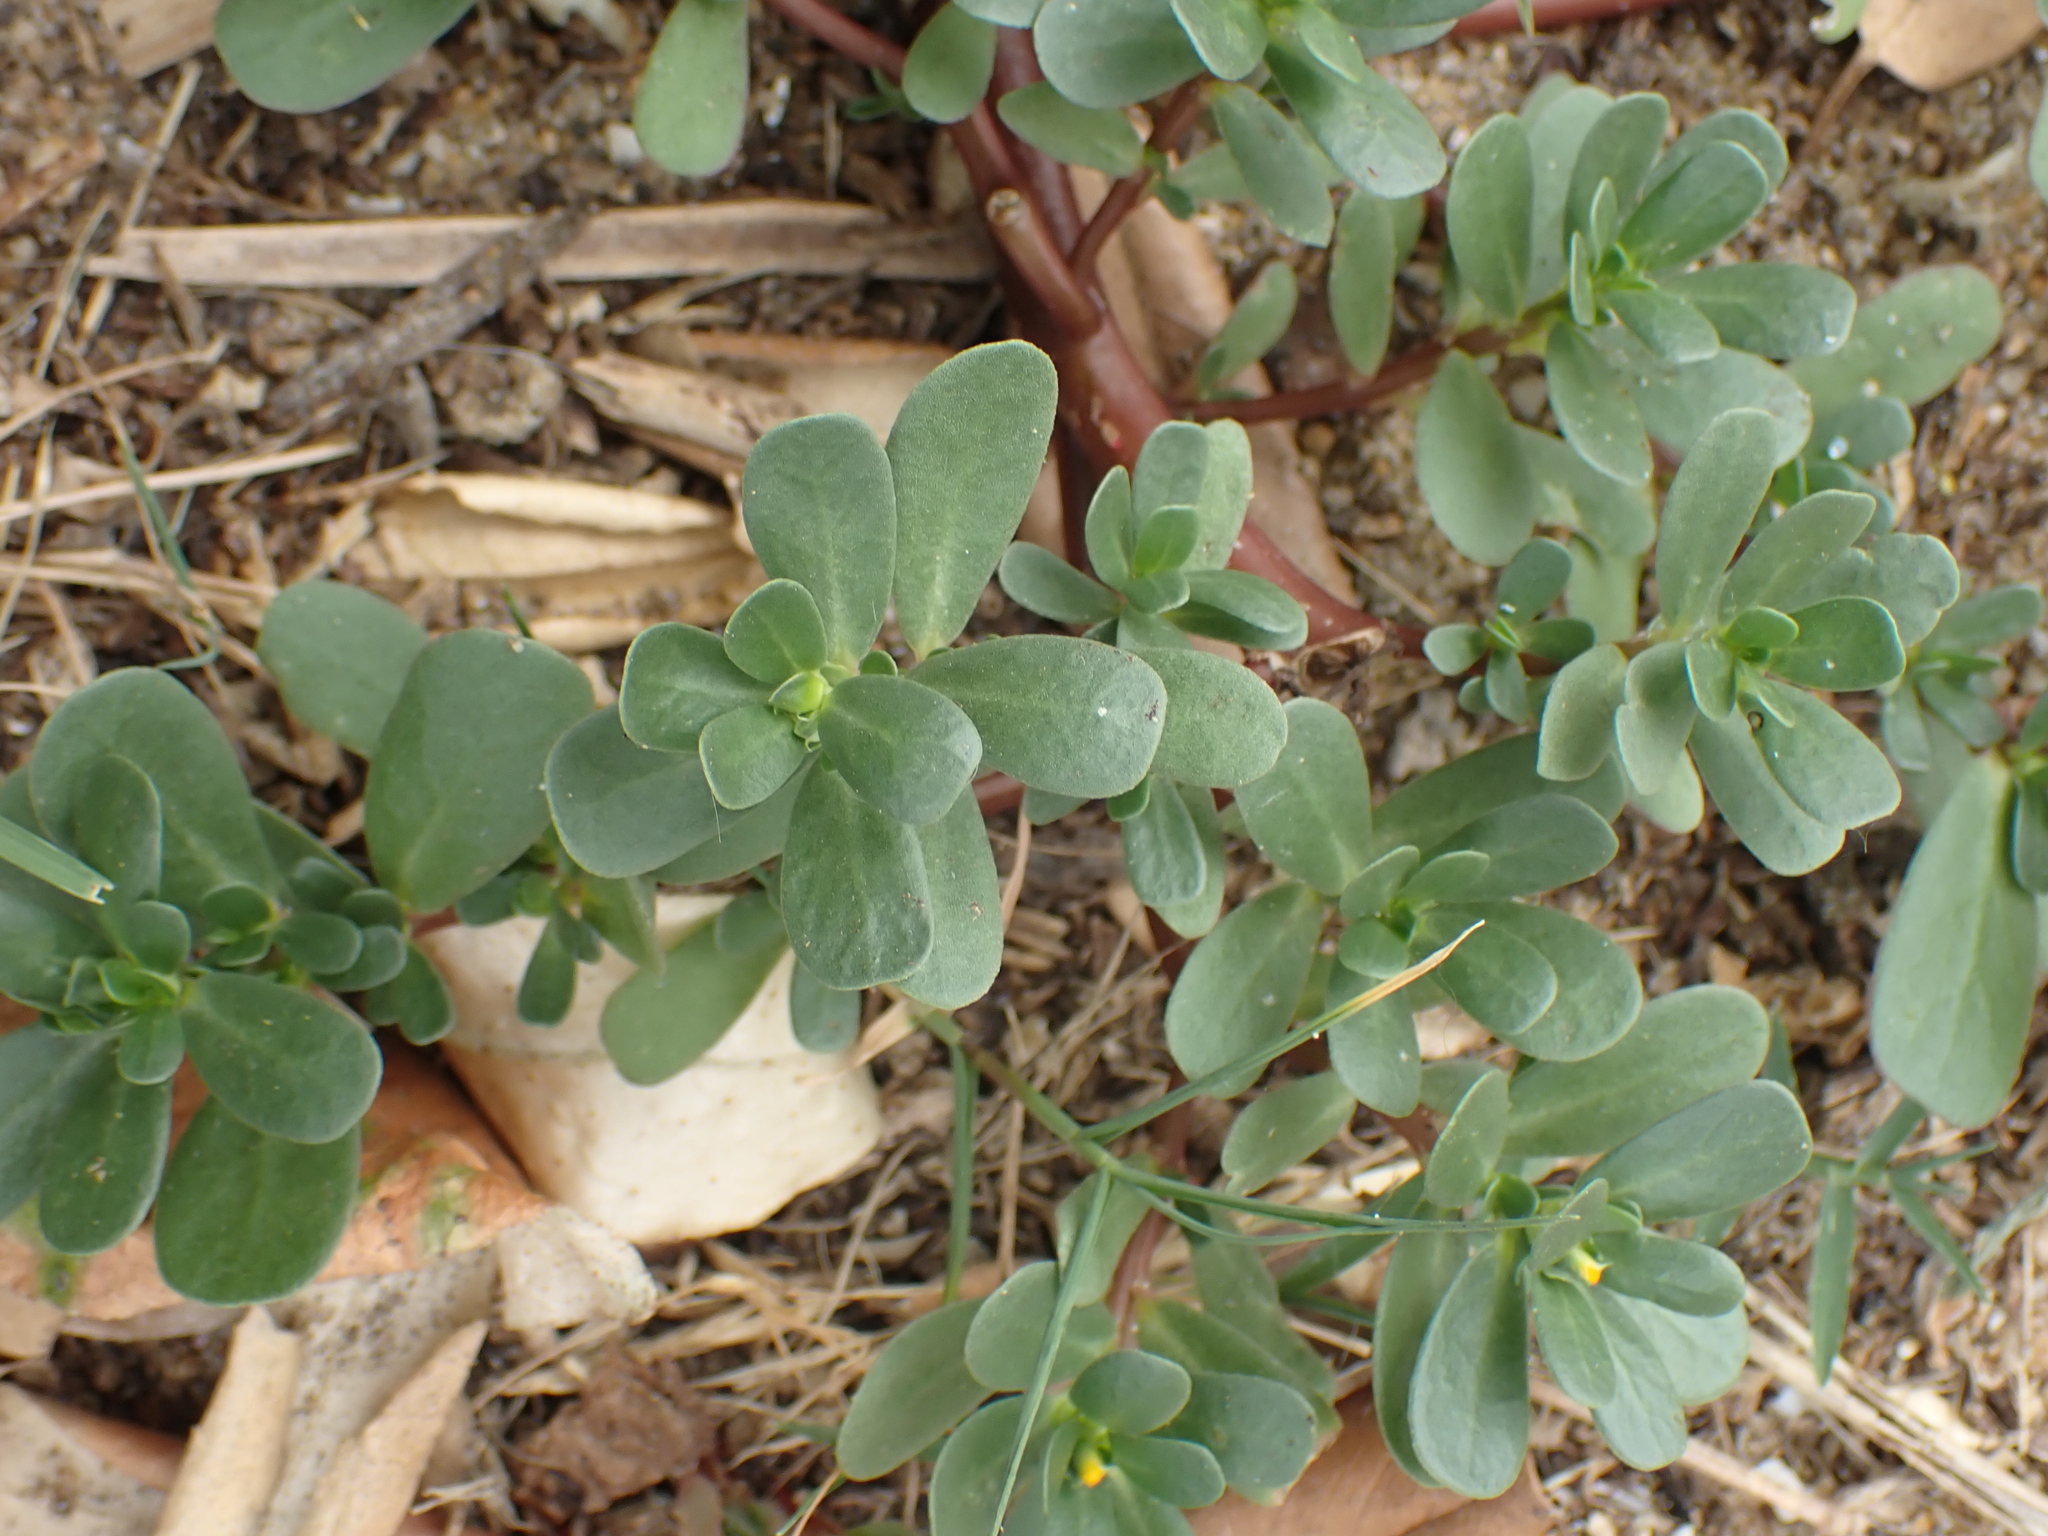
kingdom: Plantae
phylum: Tracheophyta
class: Magnoliopsida
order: Caryophyllales
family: Portulacaceae
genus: Portulaca
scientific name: Portulaca oleracea
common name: Common purslane
